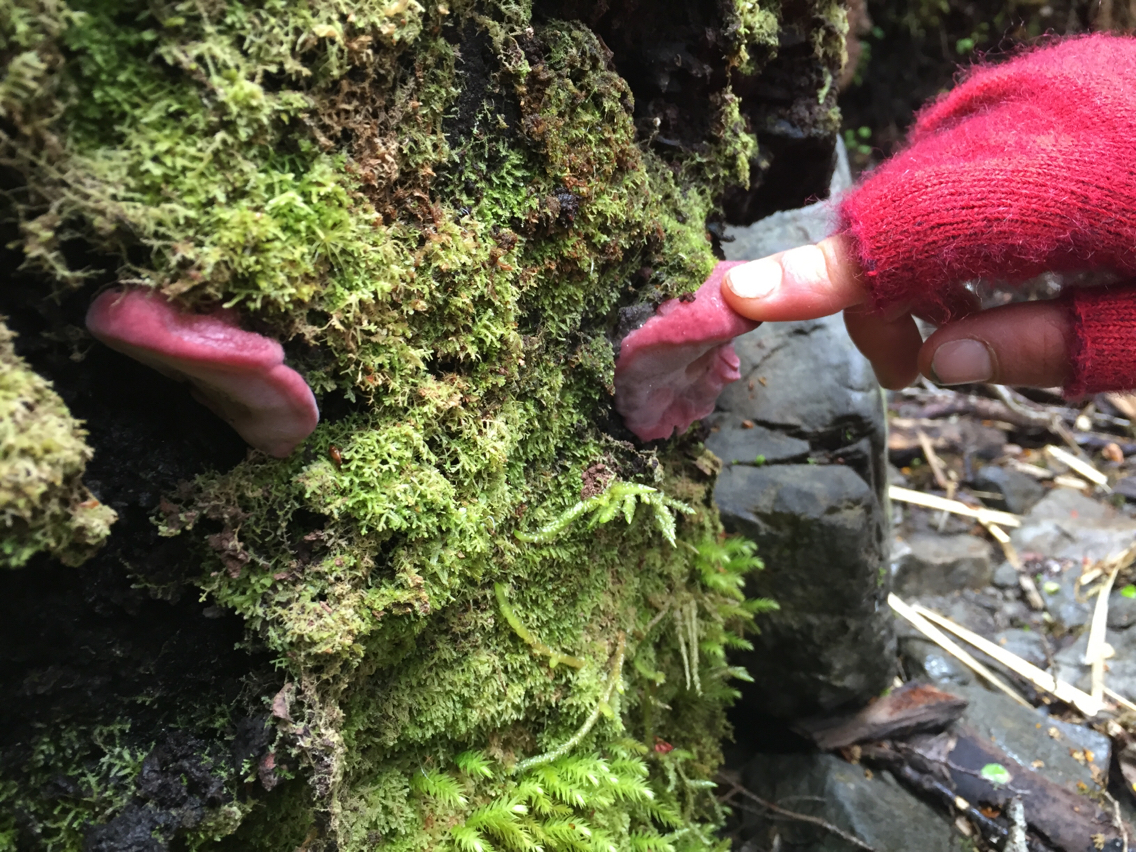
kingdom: Fungi
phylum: Basidiomycota
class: Agaricomycetes
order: Polyporales
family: Incrustoporiaceae
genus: Tyromyces
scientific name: Tyromyces pulcherrimus
